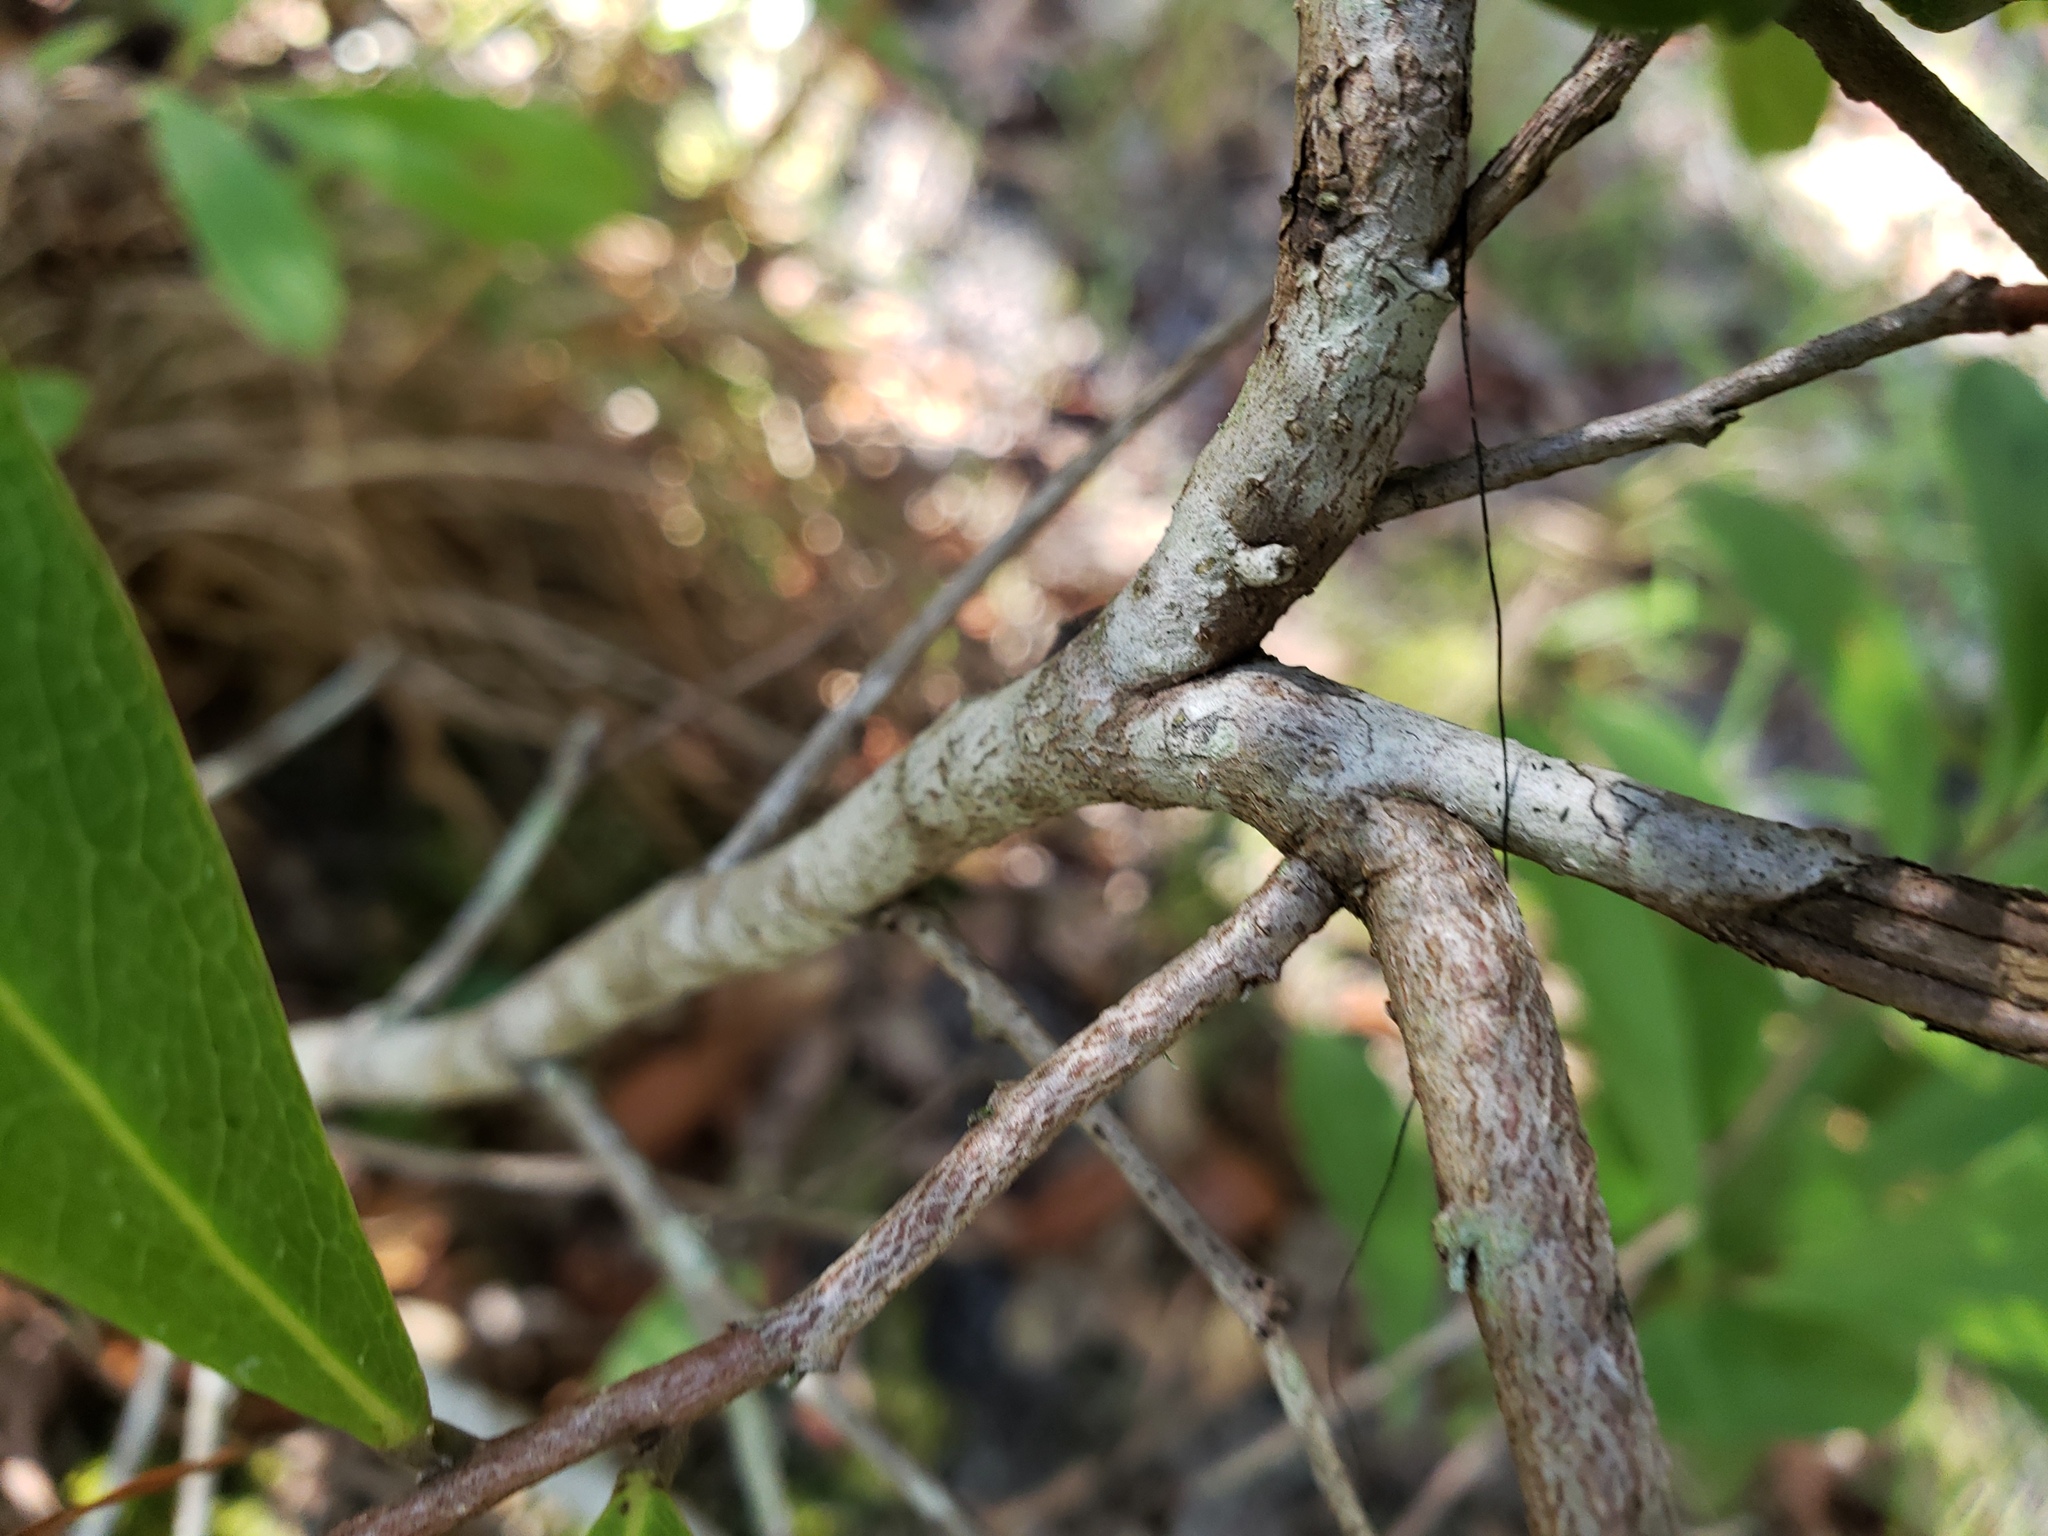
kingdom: Plantae
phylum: Tracheophyta
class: Magnoliopsida
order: Magnoliales
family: Annonaceae
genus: Asimina
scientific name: Asimina pygmaea
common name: Dwarf pawpaw
